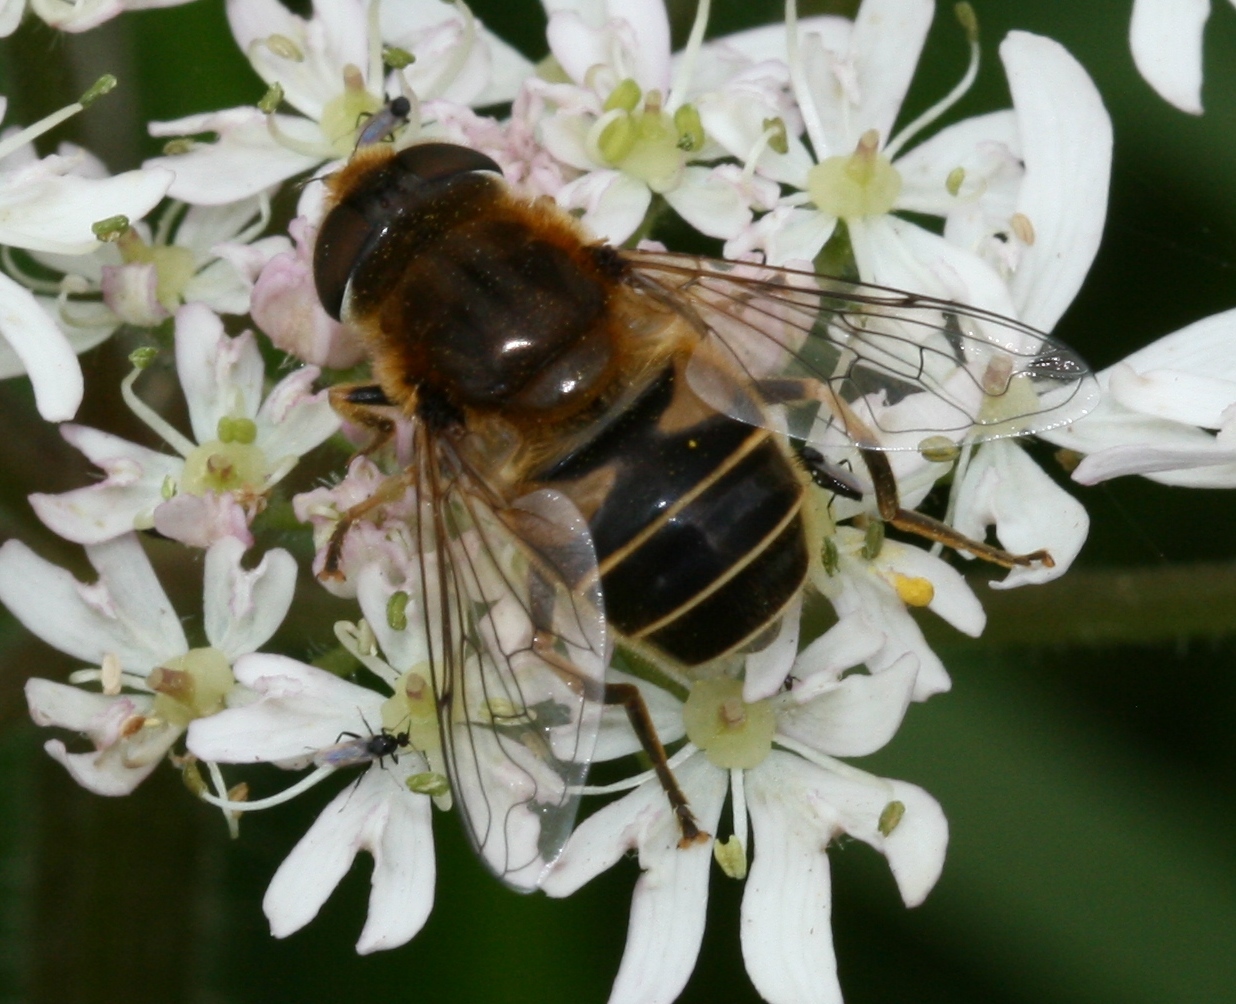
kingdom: Animalia
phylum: Arthropoda
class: Insecta
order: Diptera
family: Syrphidae
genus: Eristalis
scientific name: Eristalis nemorum
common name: Orange-spined drone fly
